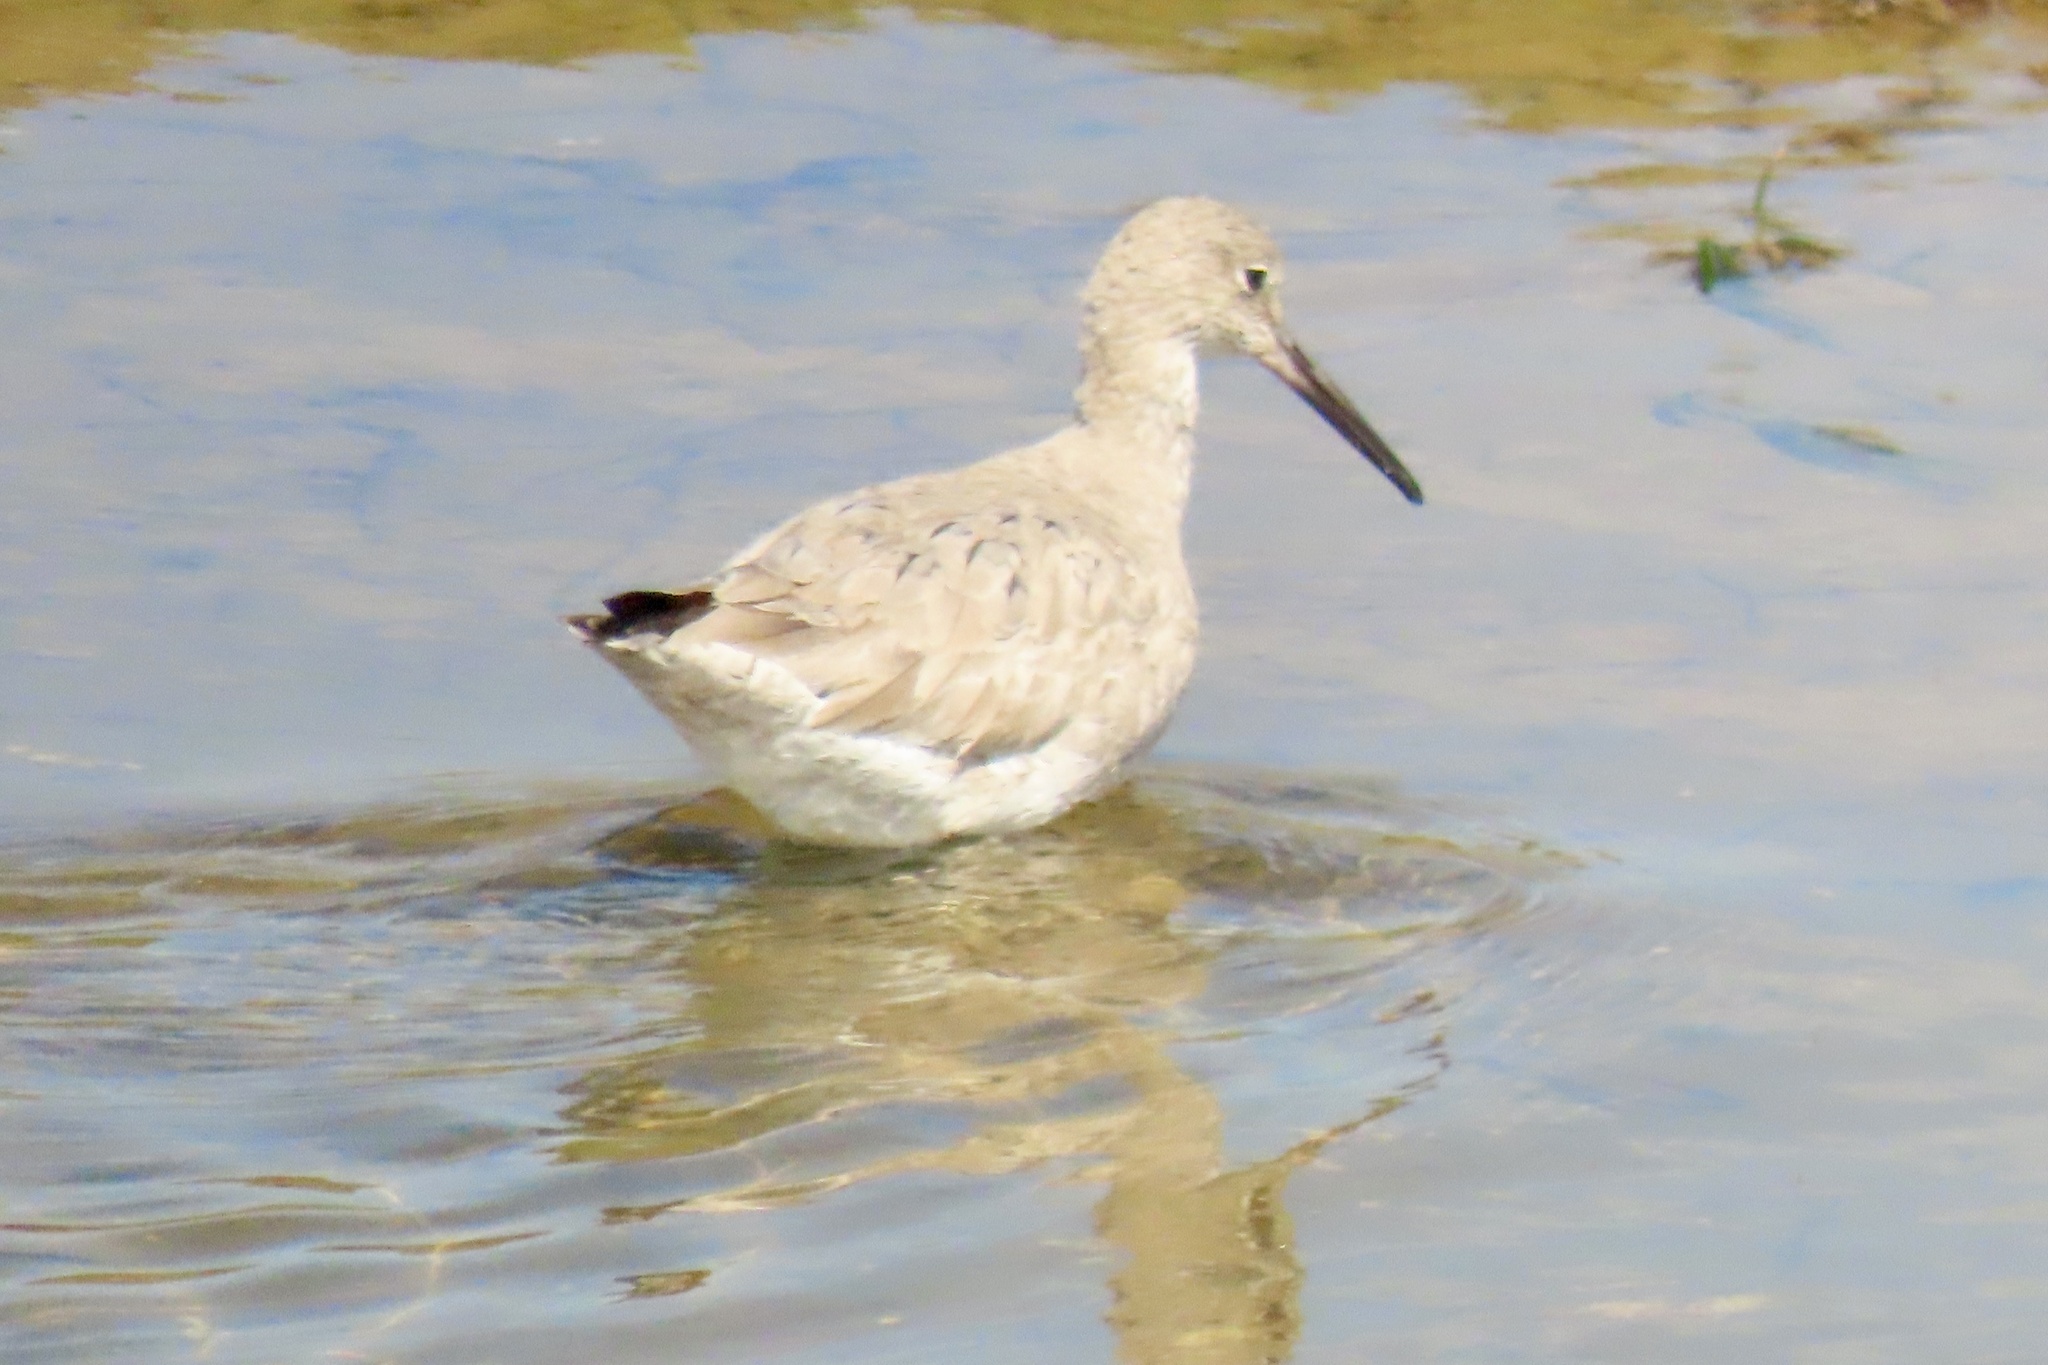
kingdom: Animalia
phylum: Chordata
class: Aves
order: Charadriiformes
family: Scolopacidae
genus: Tringa
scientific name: Tringa semipalmata
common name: Willet
